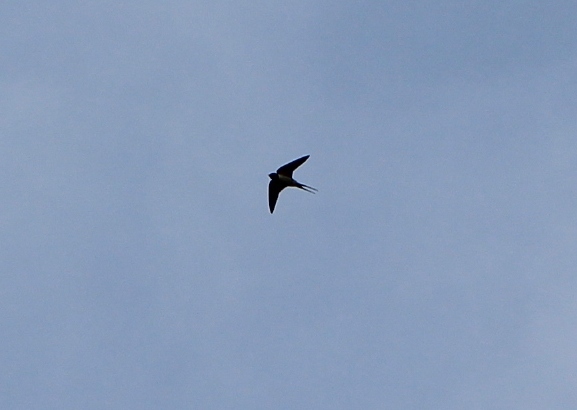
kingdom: Animalia
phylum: Chordata
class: Aves
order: Passeriformes
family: Hirundinidae
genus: Hirundo
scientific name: Hirundo rustica
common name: Barn swallow
